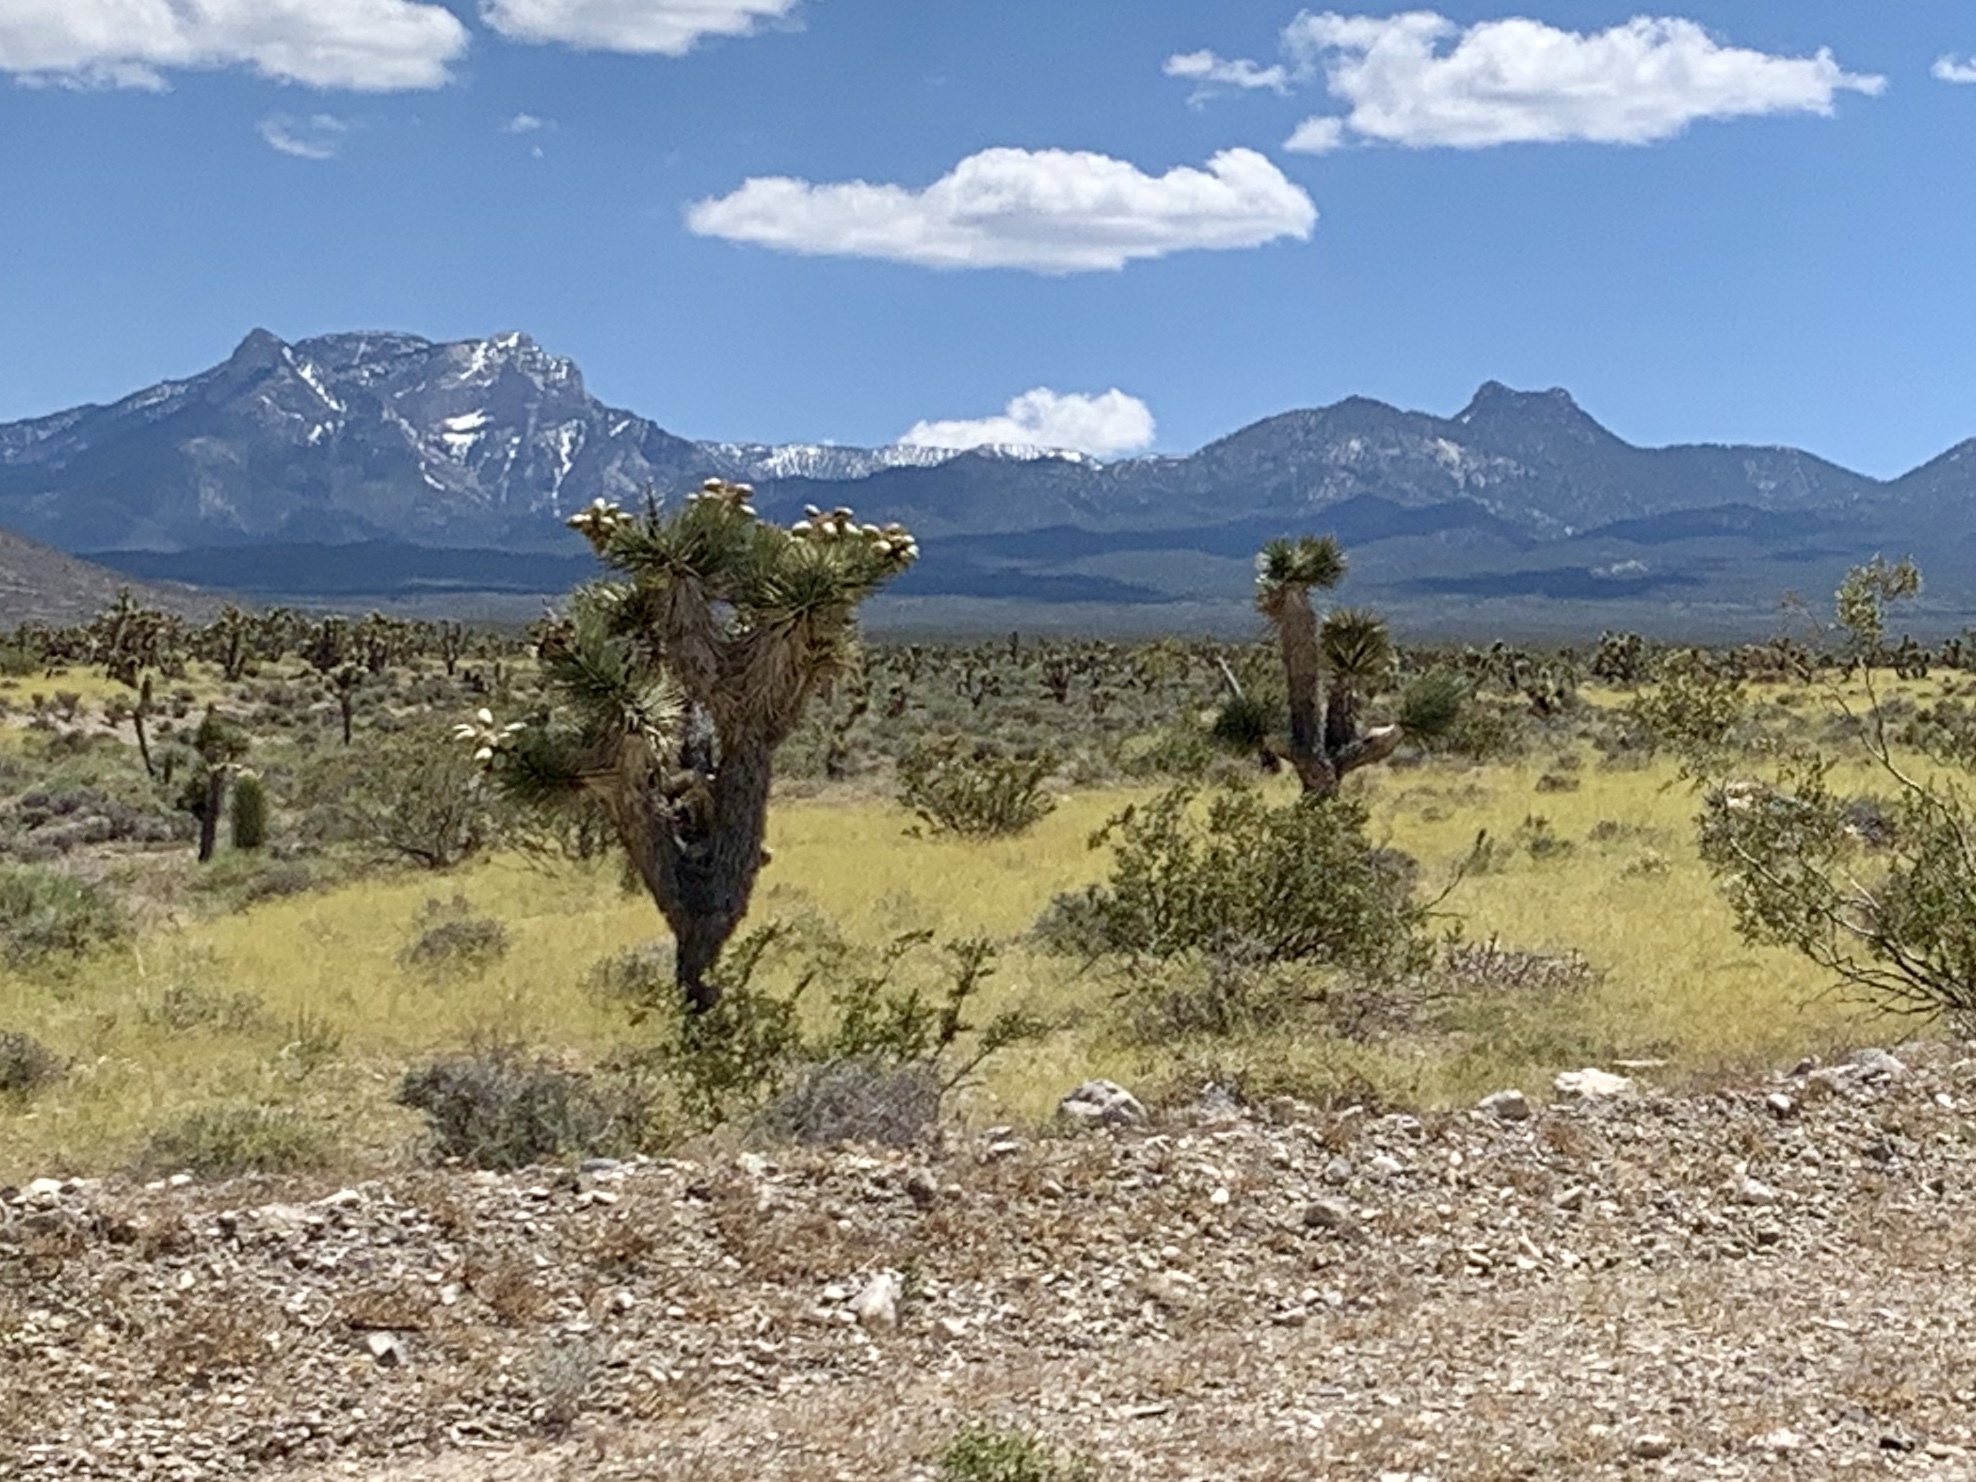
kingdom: Plantae
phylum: Tracheophyta
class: Liliopsida
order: Asparagales
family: Asparagaceae
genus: Yucca
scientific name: Yucca brevifolia
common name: Joshua tree
